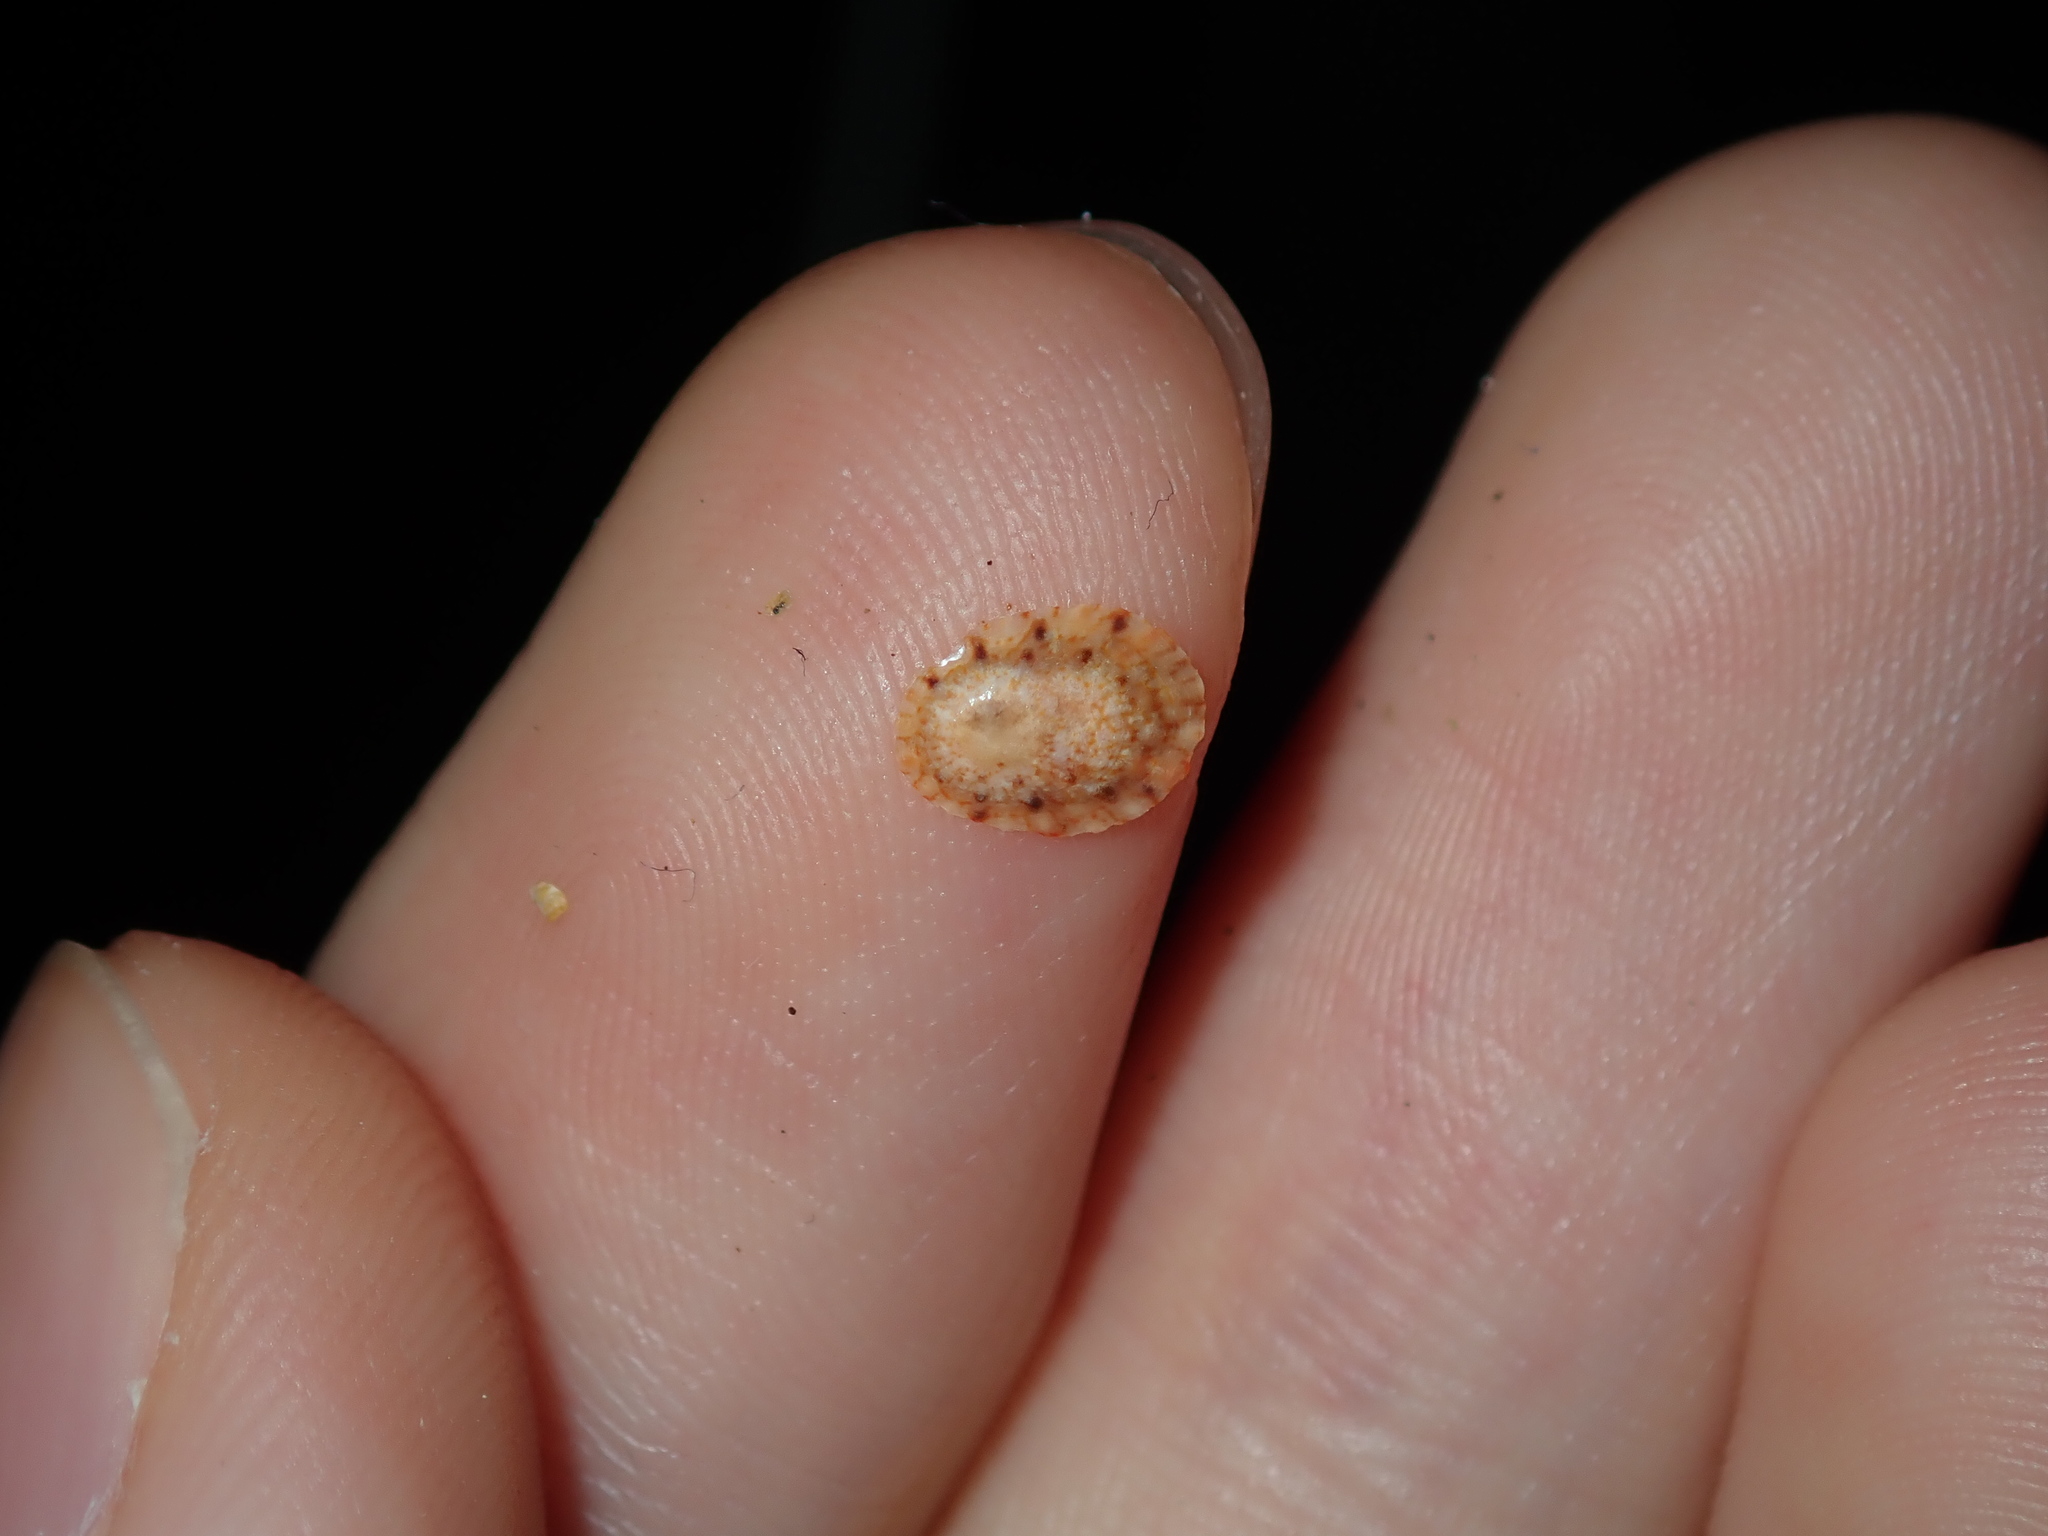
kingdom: Animalia
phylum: Mollusca
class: Gastropoda
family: Nacellidae
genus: Cellana
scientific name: Cellana tramoserica
